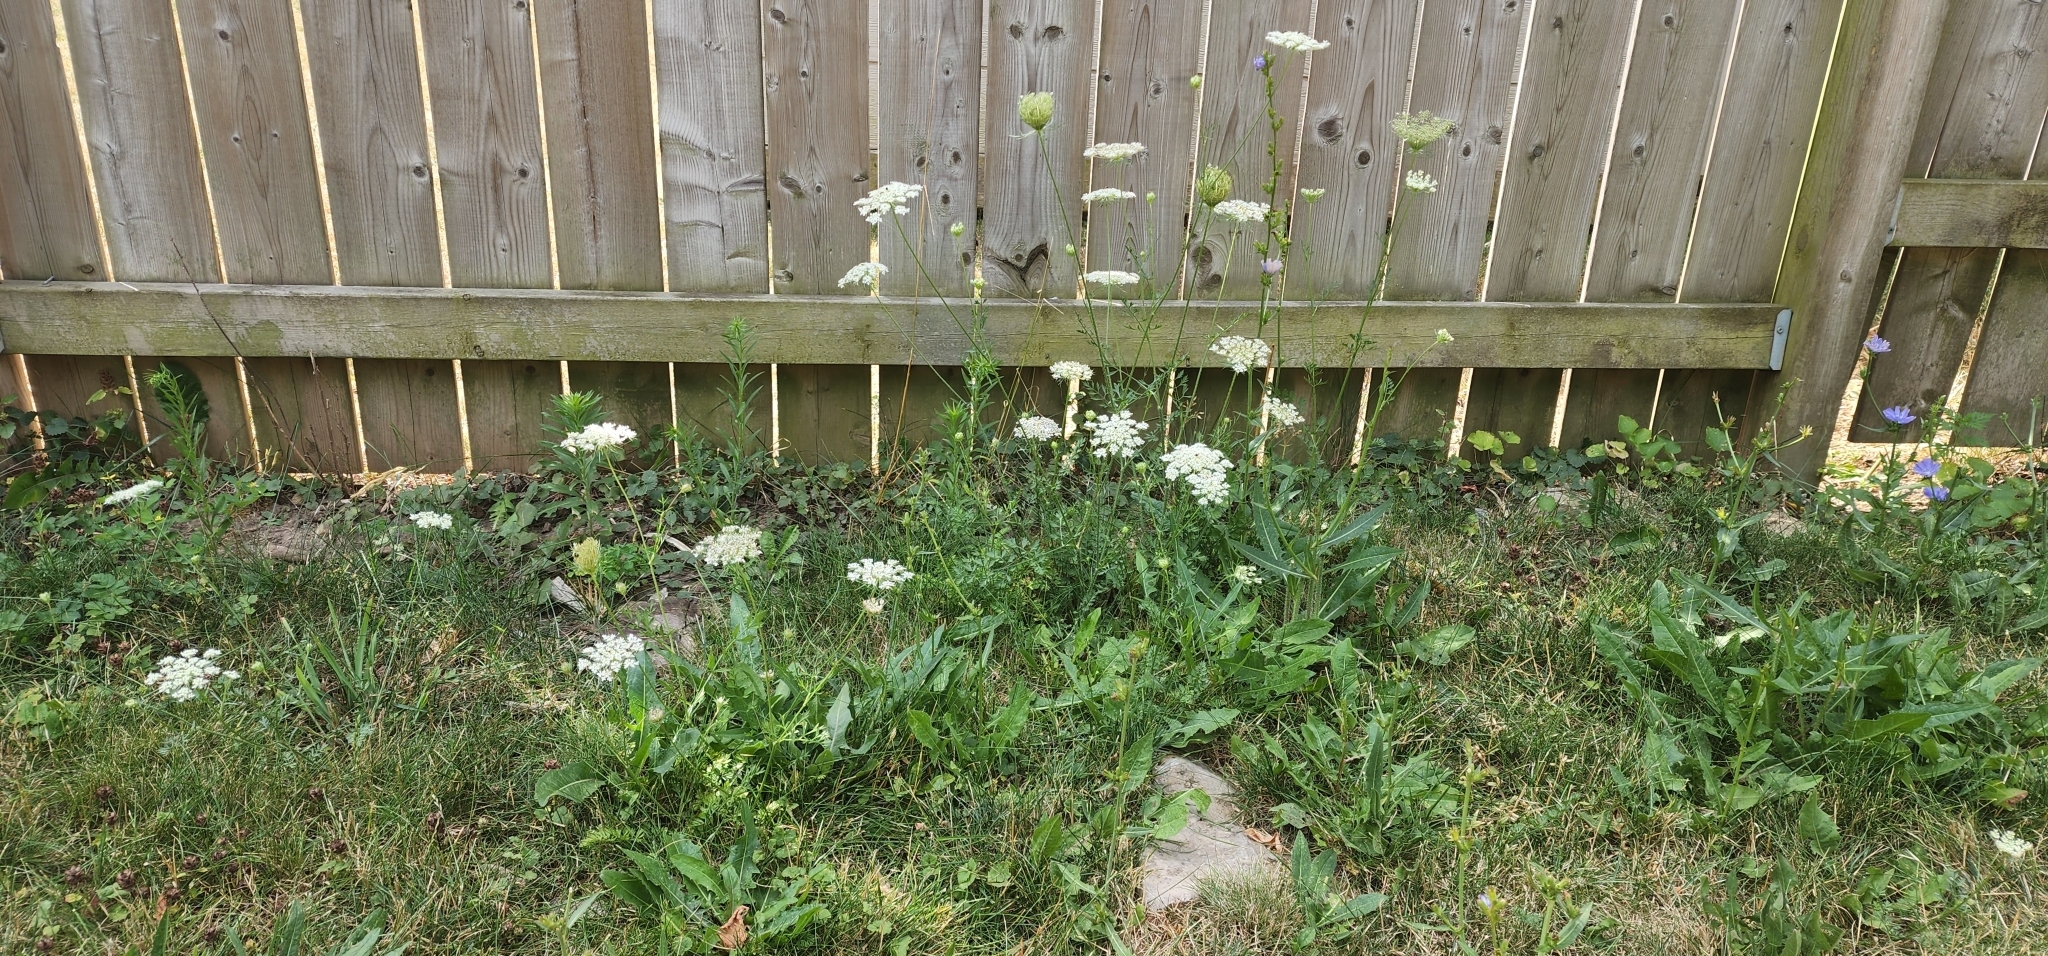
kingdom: Plantae
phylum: Tracheophyta
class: Magnoliopsida
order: Apiales
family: Apiaceae
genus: Daucus
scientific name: Daucus carota
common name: Wild carrot
